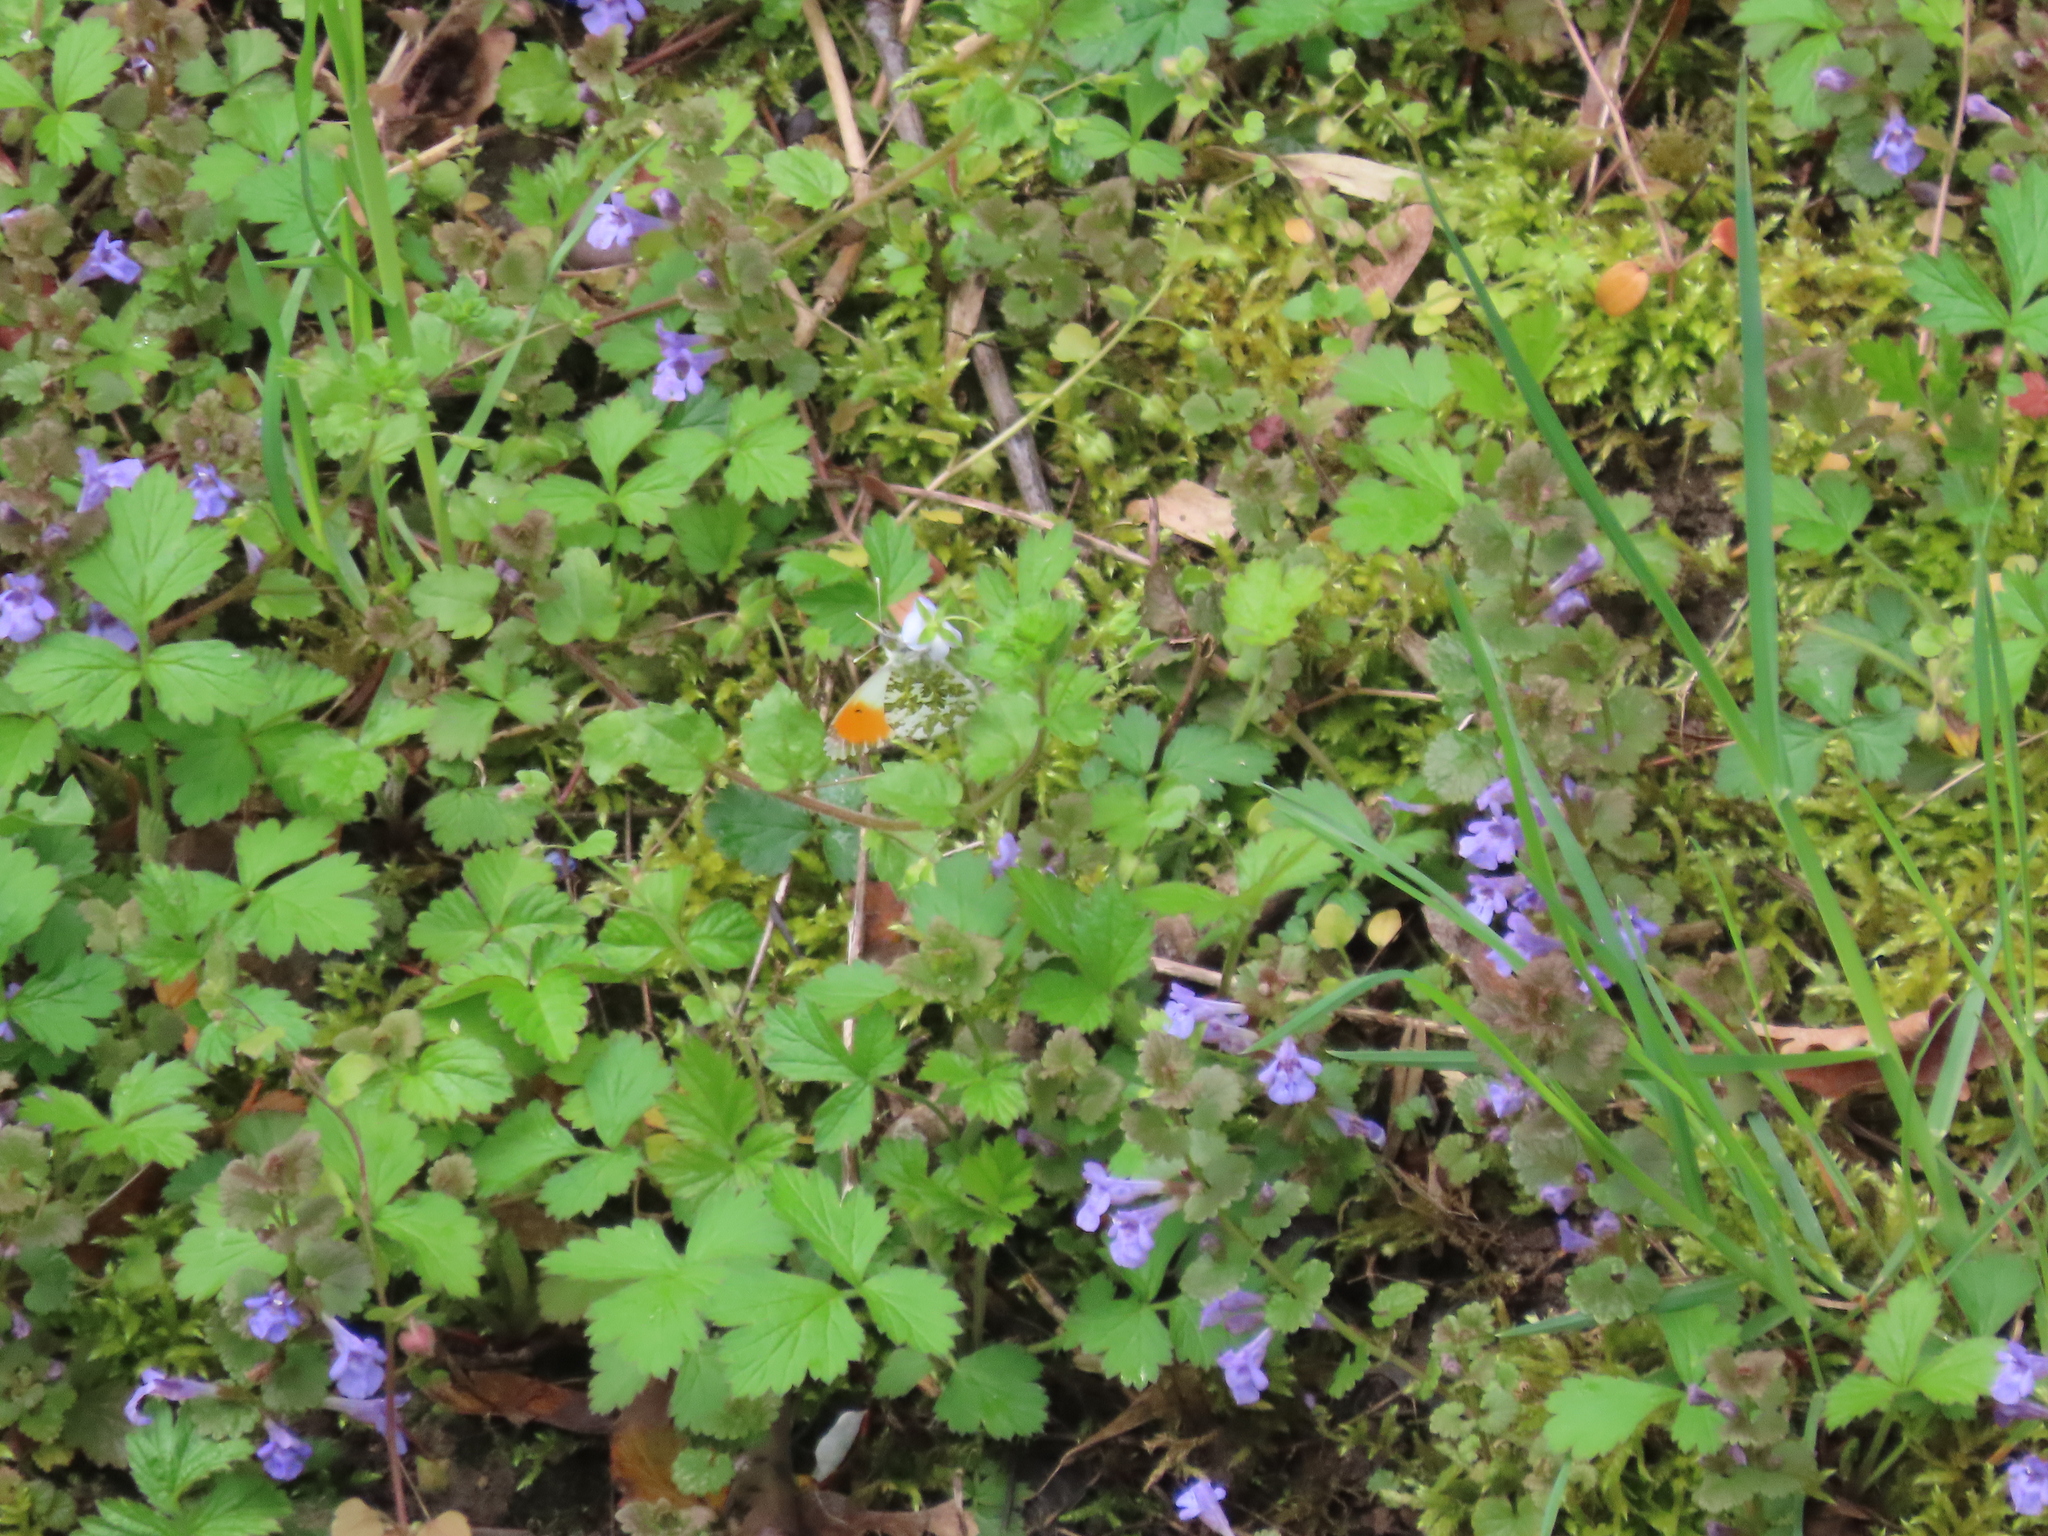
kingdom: Animalia
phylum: Arthropoda
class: Insecta
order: Lepidoptera
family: Pieridae
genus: Anthocharis
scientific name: Anthocharis cardamines
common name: Orange-tip
